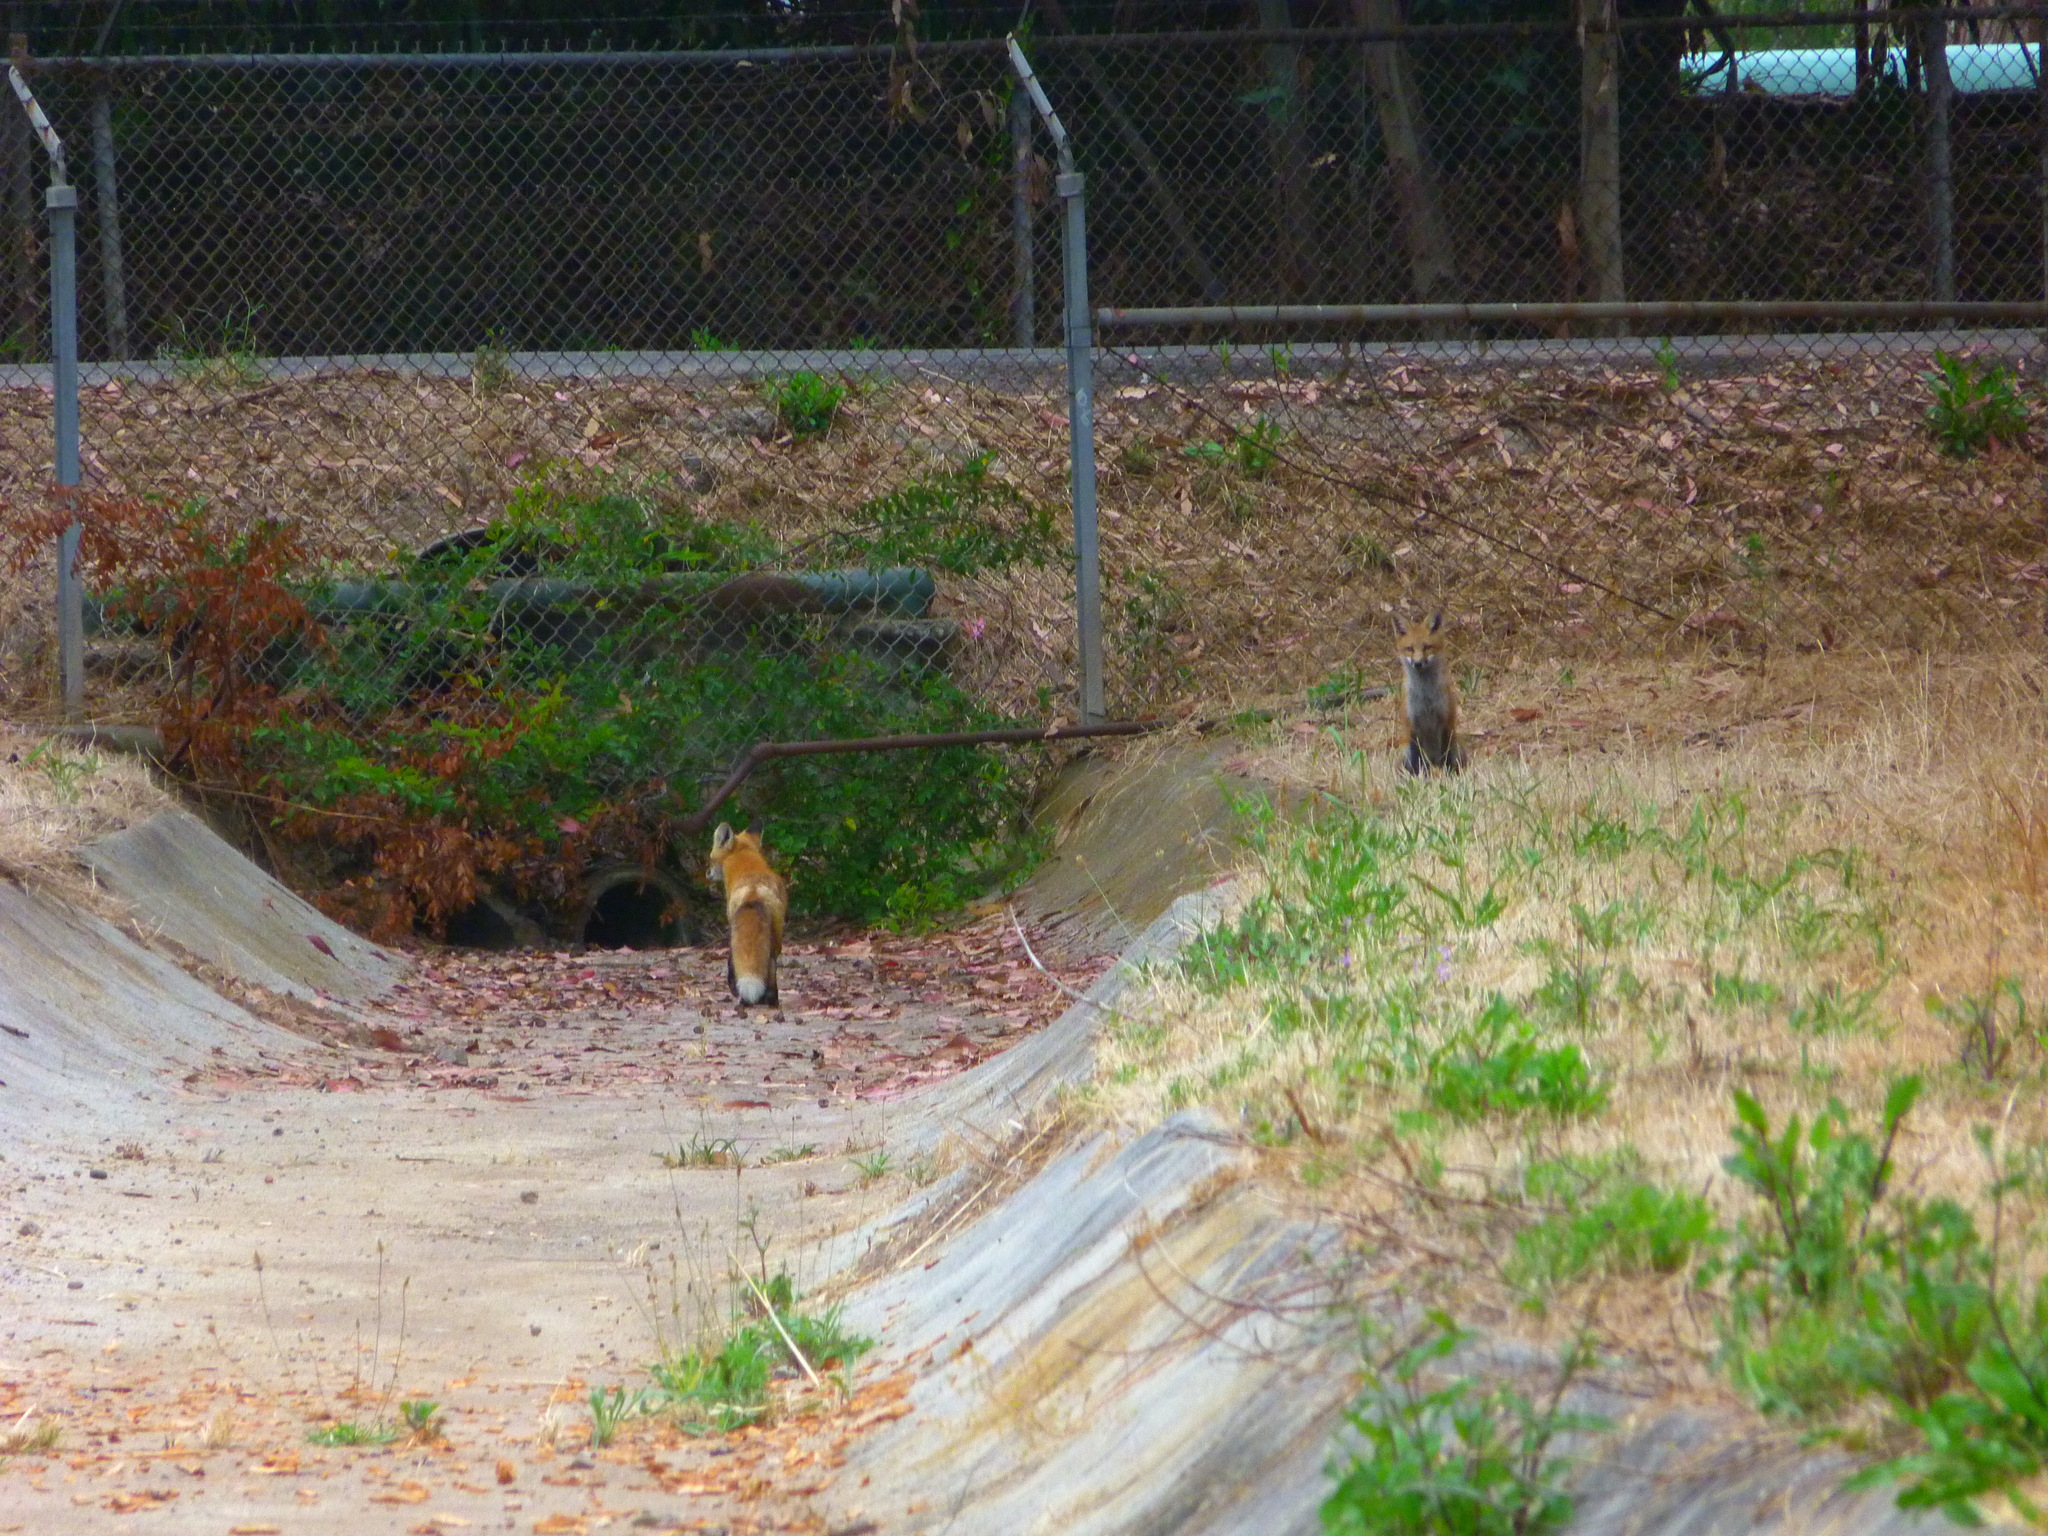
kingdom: Animalia
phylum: Chordata
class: Mammalia
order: Carnivora
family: Canidae
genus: Vulpes
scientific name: Vulpes vulpes
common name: Red fox
